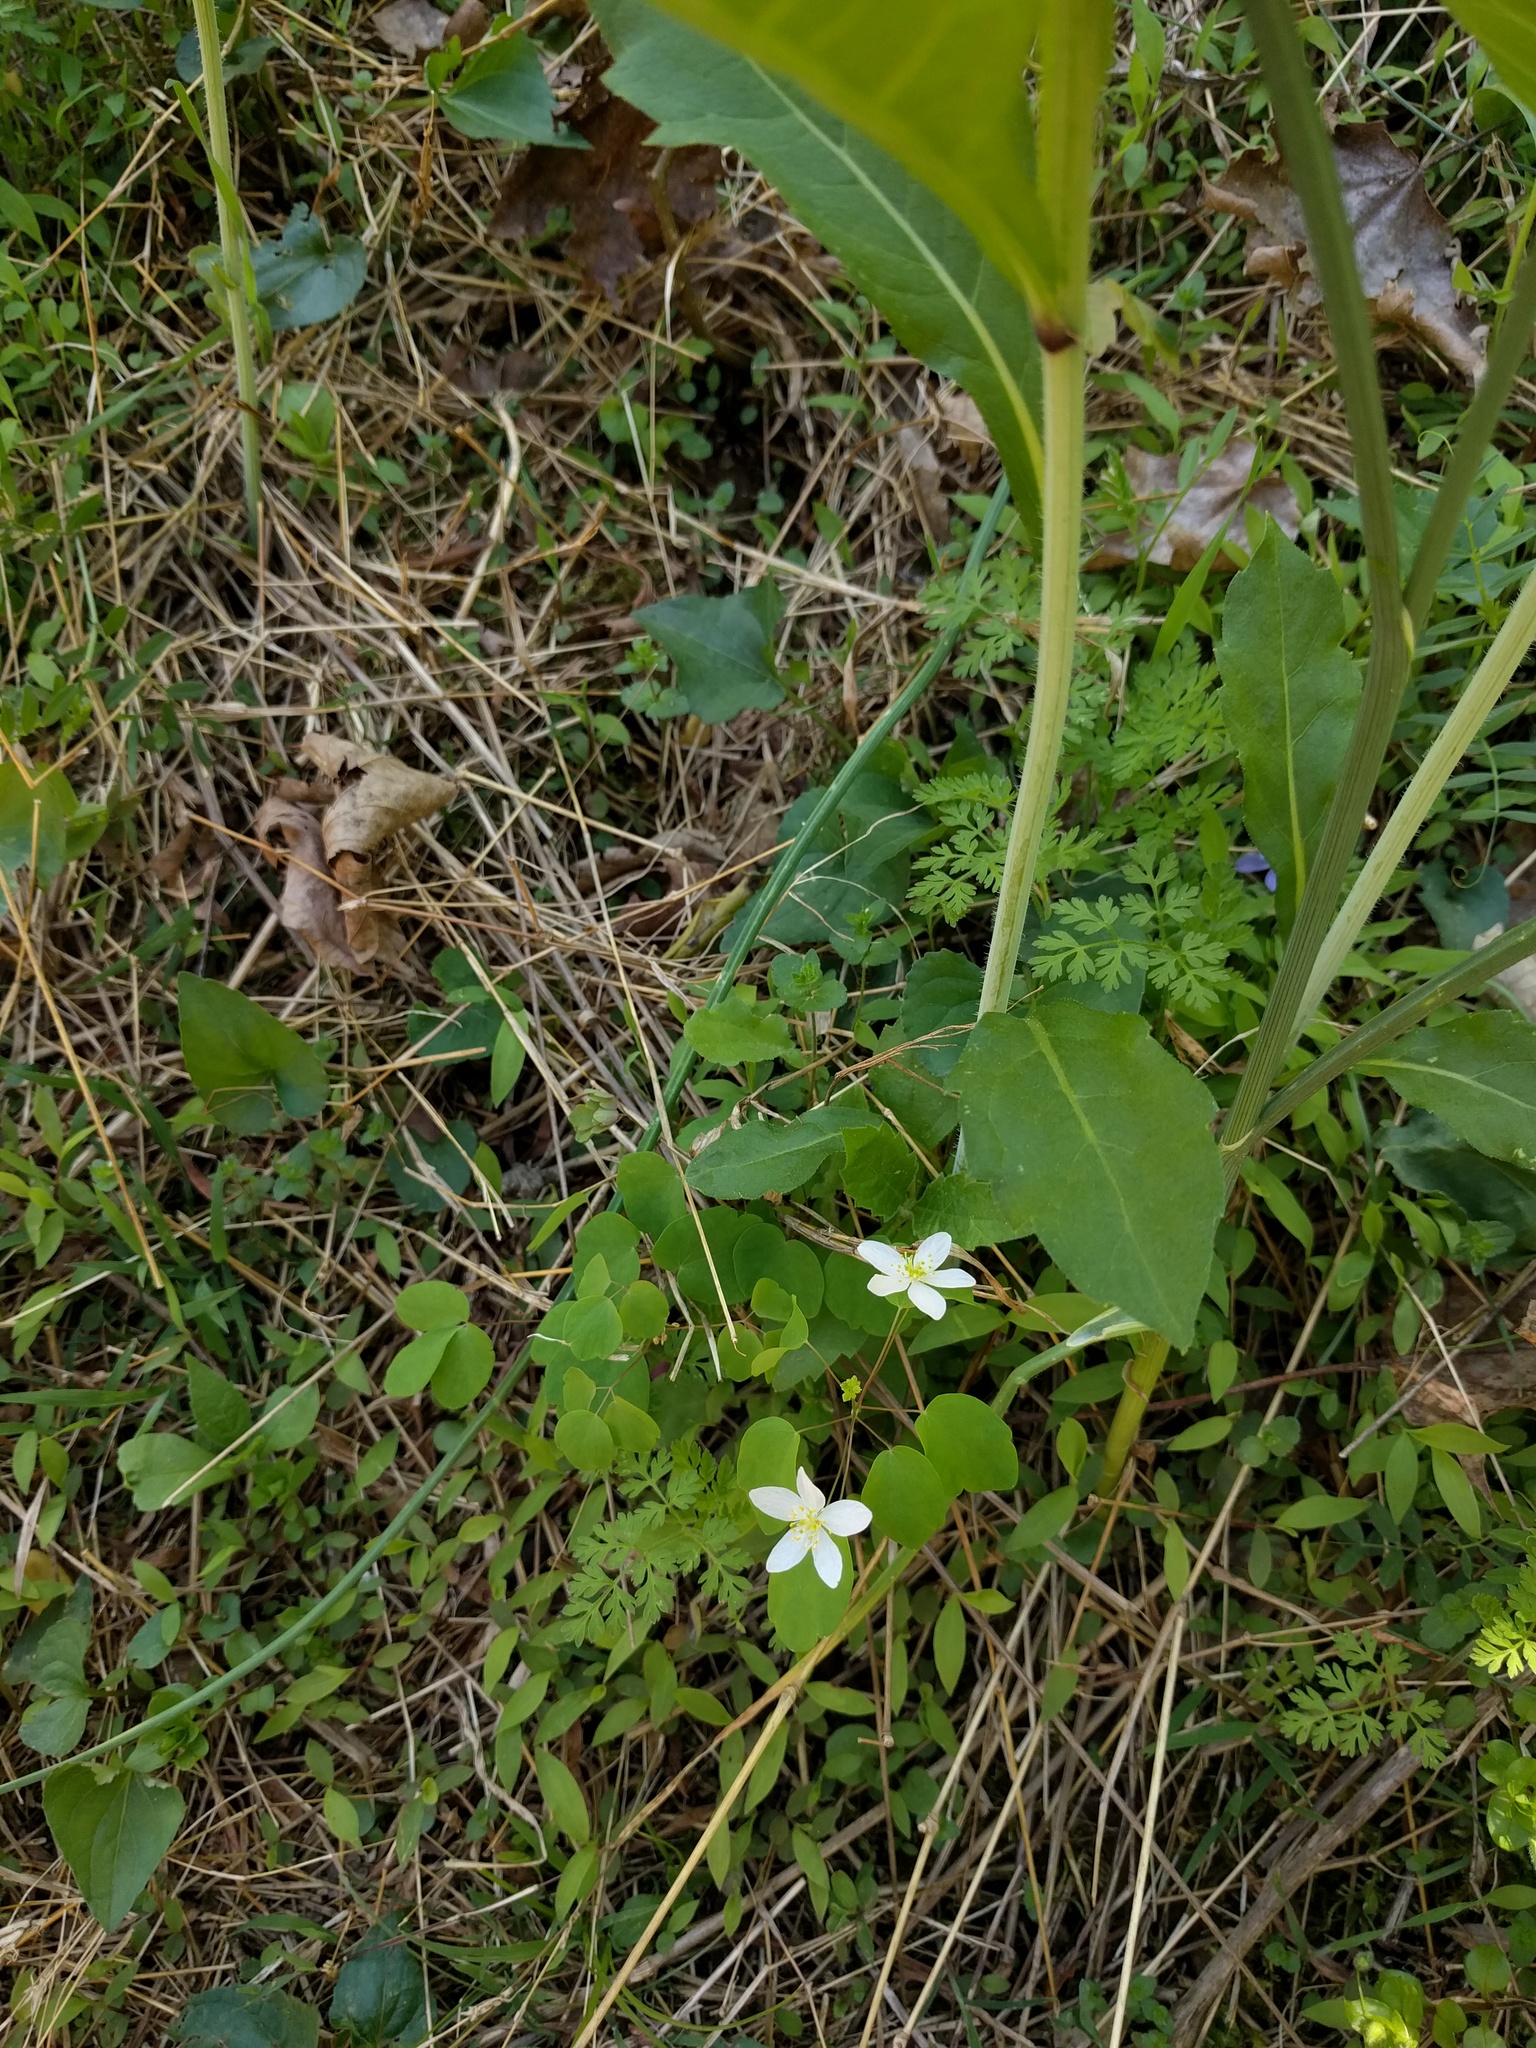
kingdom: Plantae
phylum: Tracheophyta
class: Magnoliopsida
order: Ranunculales
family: Ranunculaceae
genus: Thalictrum
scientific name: Thalictrum thalictroides
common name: Rue-anemone
